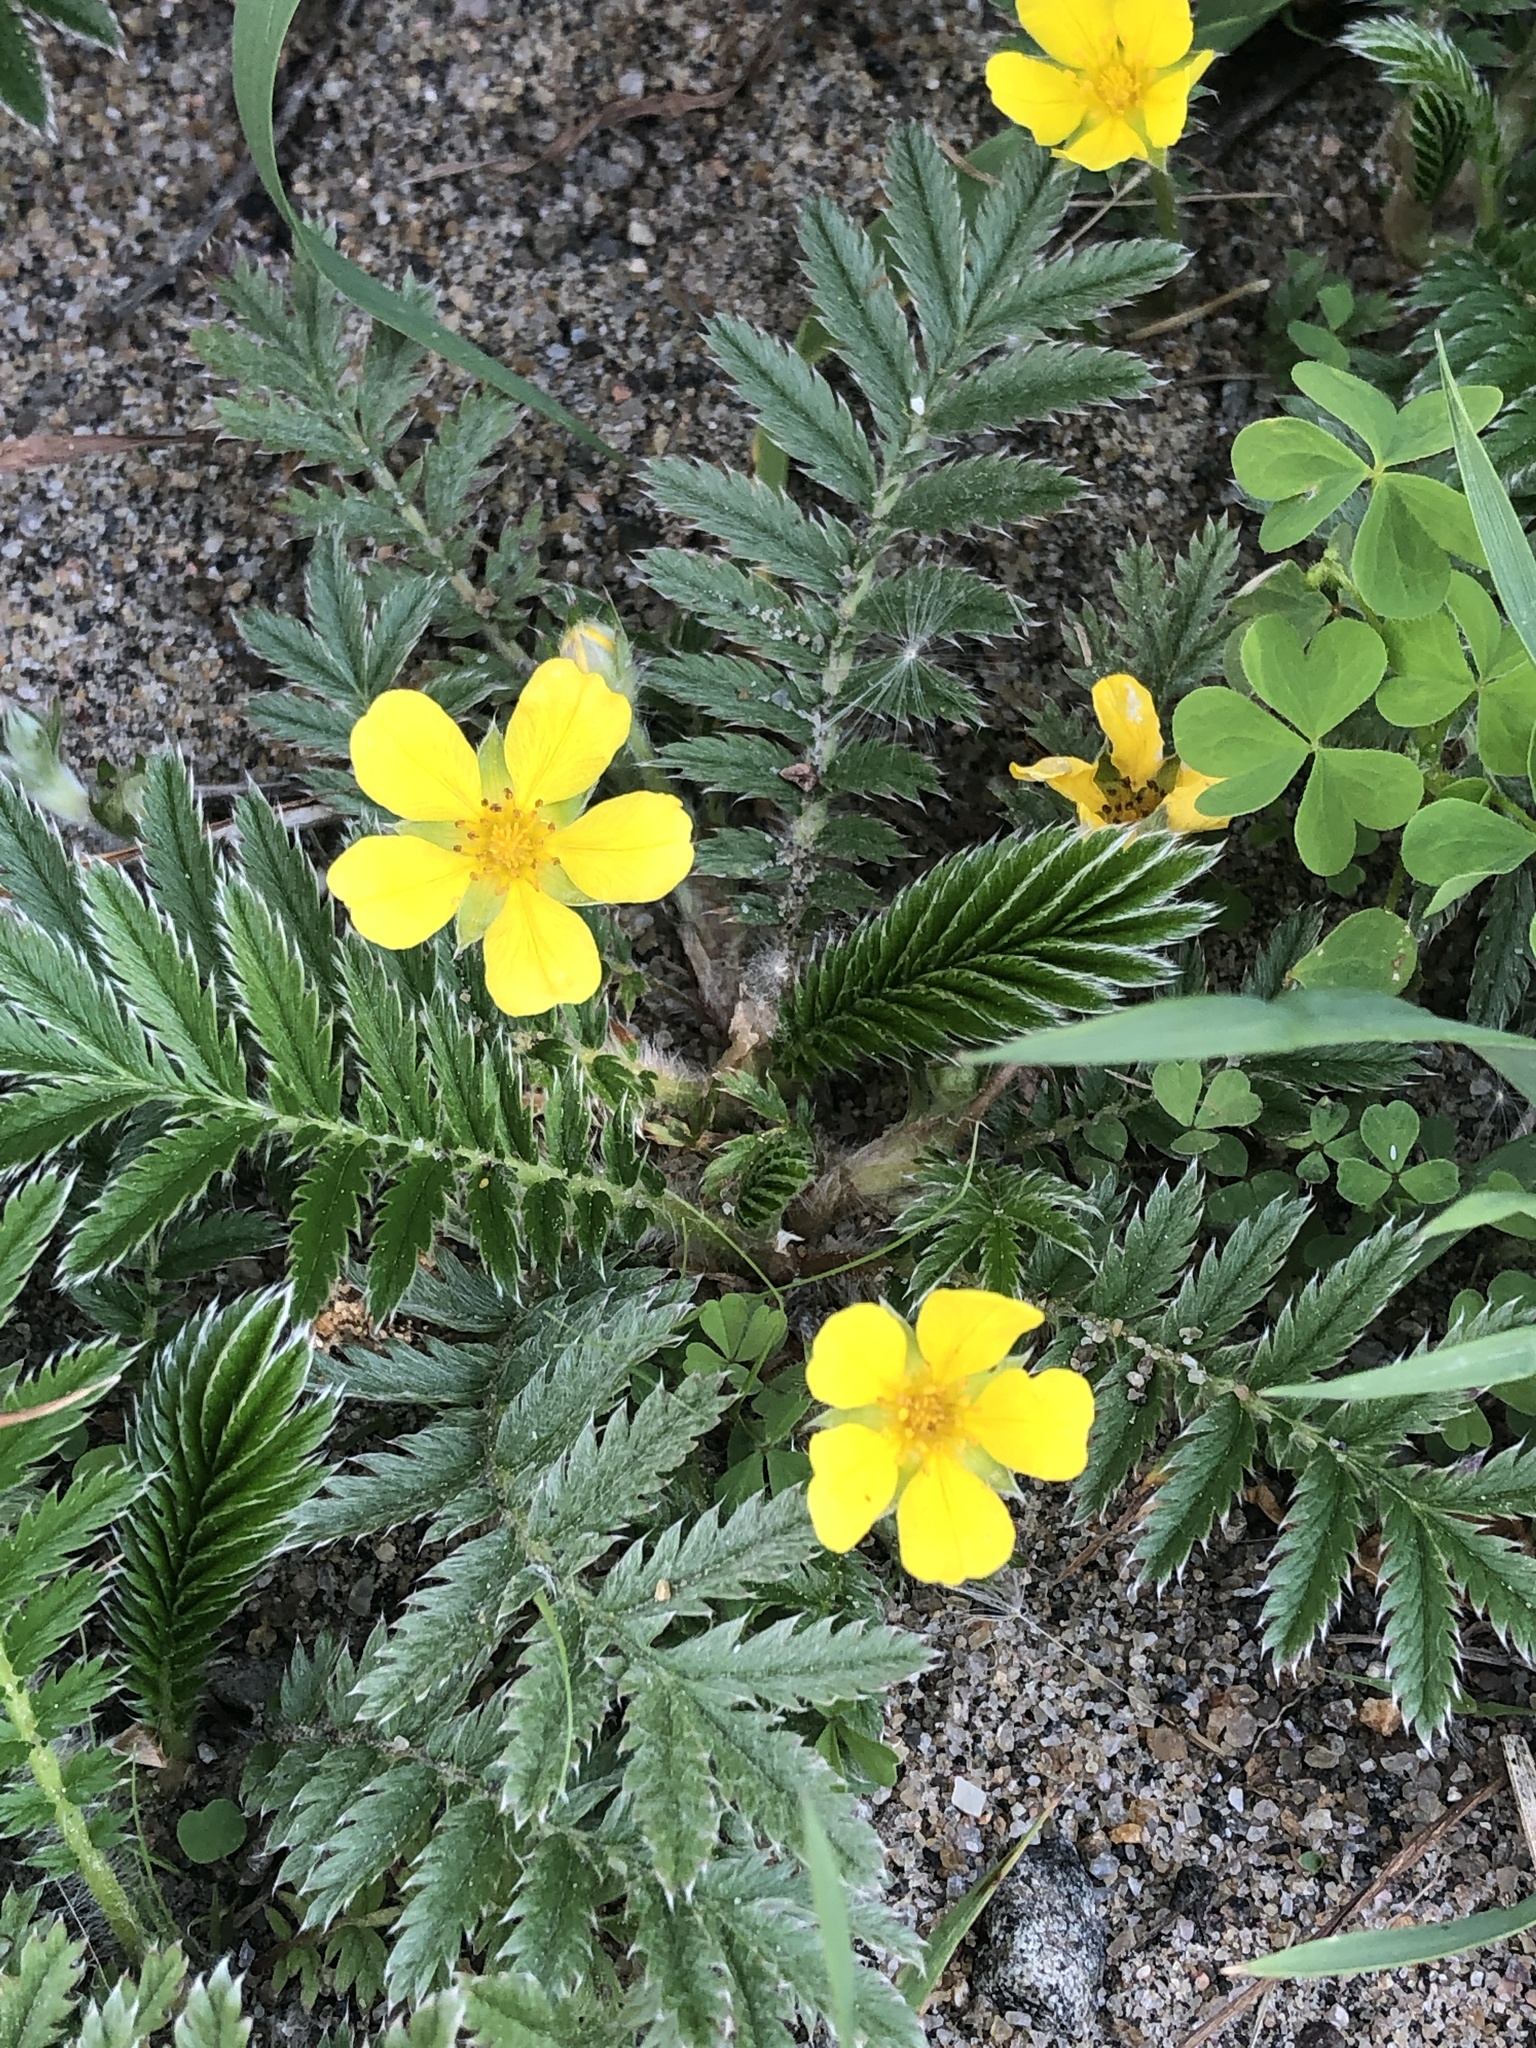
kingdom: Plantae
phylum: Tracheophyta
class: Magnoliopsida
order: Rosales
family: Rosaceae
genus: Argentina
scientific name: Argentina anserina
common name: Common silverweed
